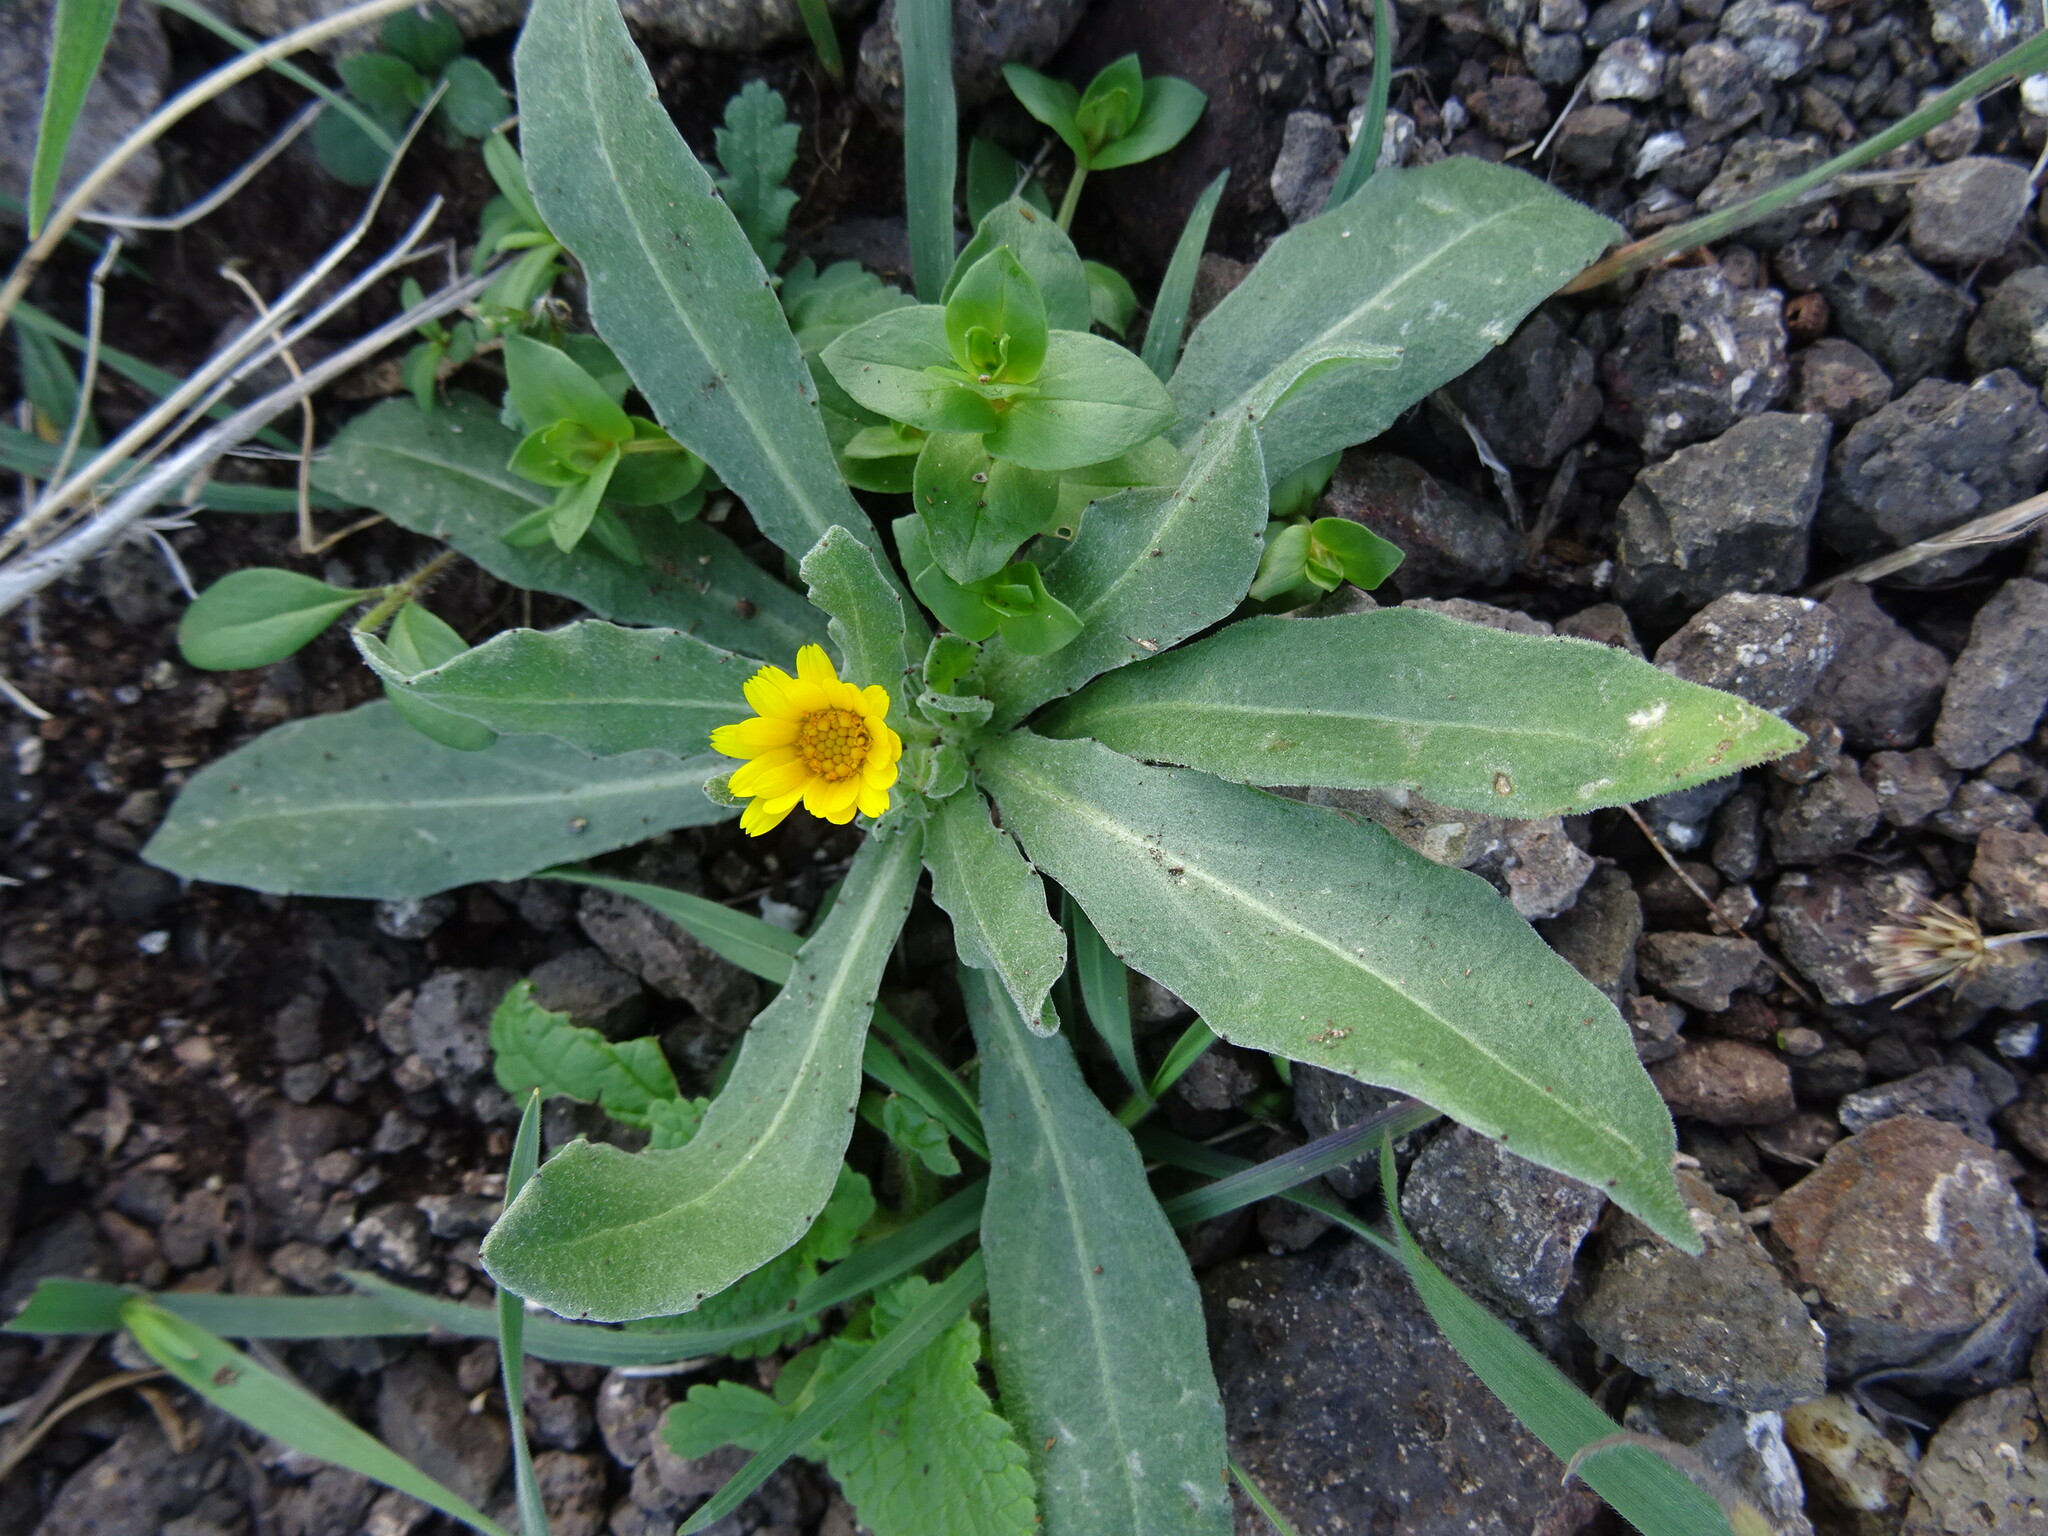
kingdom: Plantae
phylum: Tracheophyta
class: Magnoliopsida
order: Asterales
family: Asteraceae
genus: Calendula
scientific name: Calendula arvensis
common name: Field marigold
